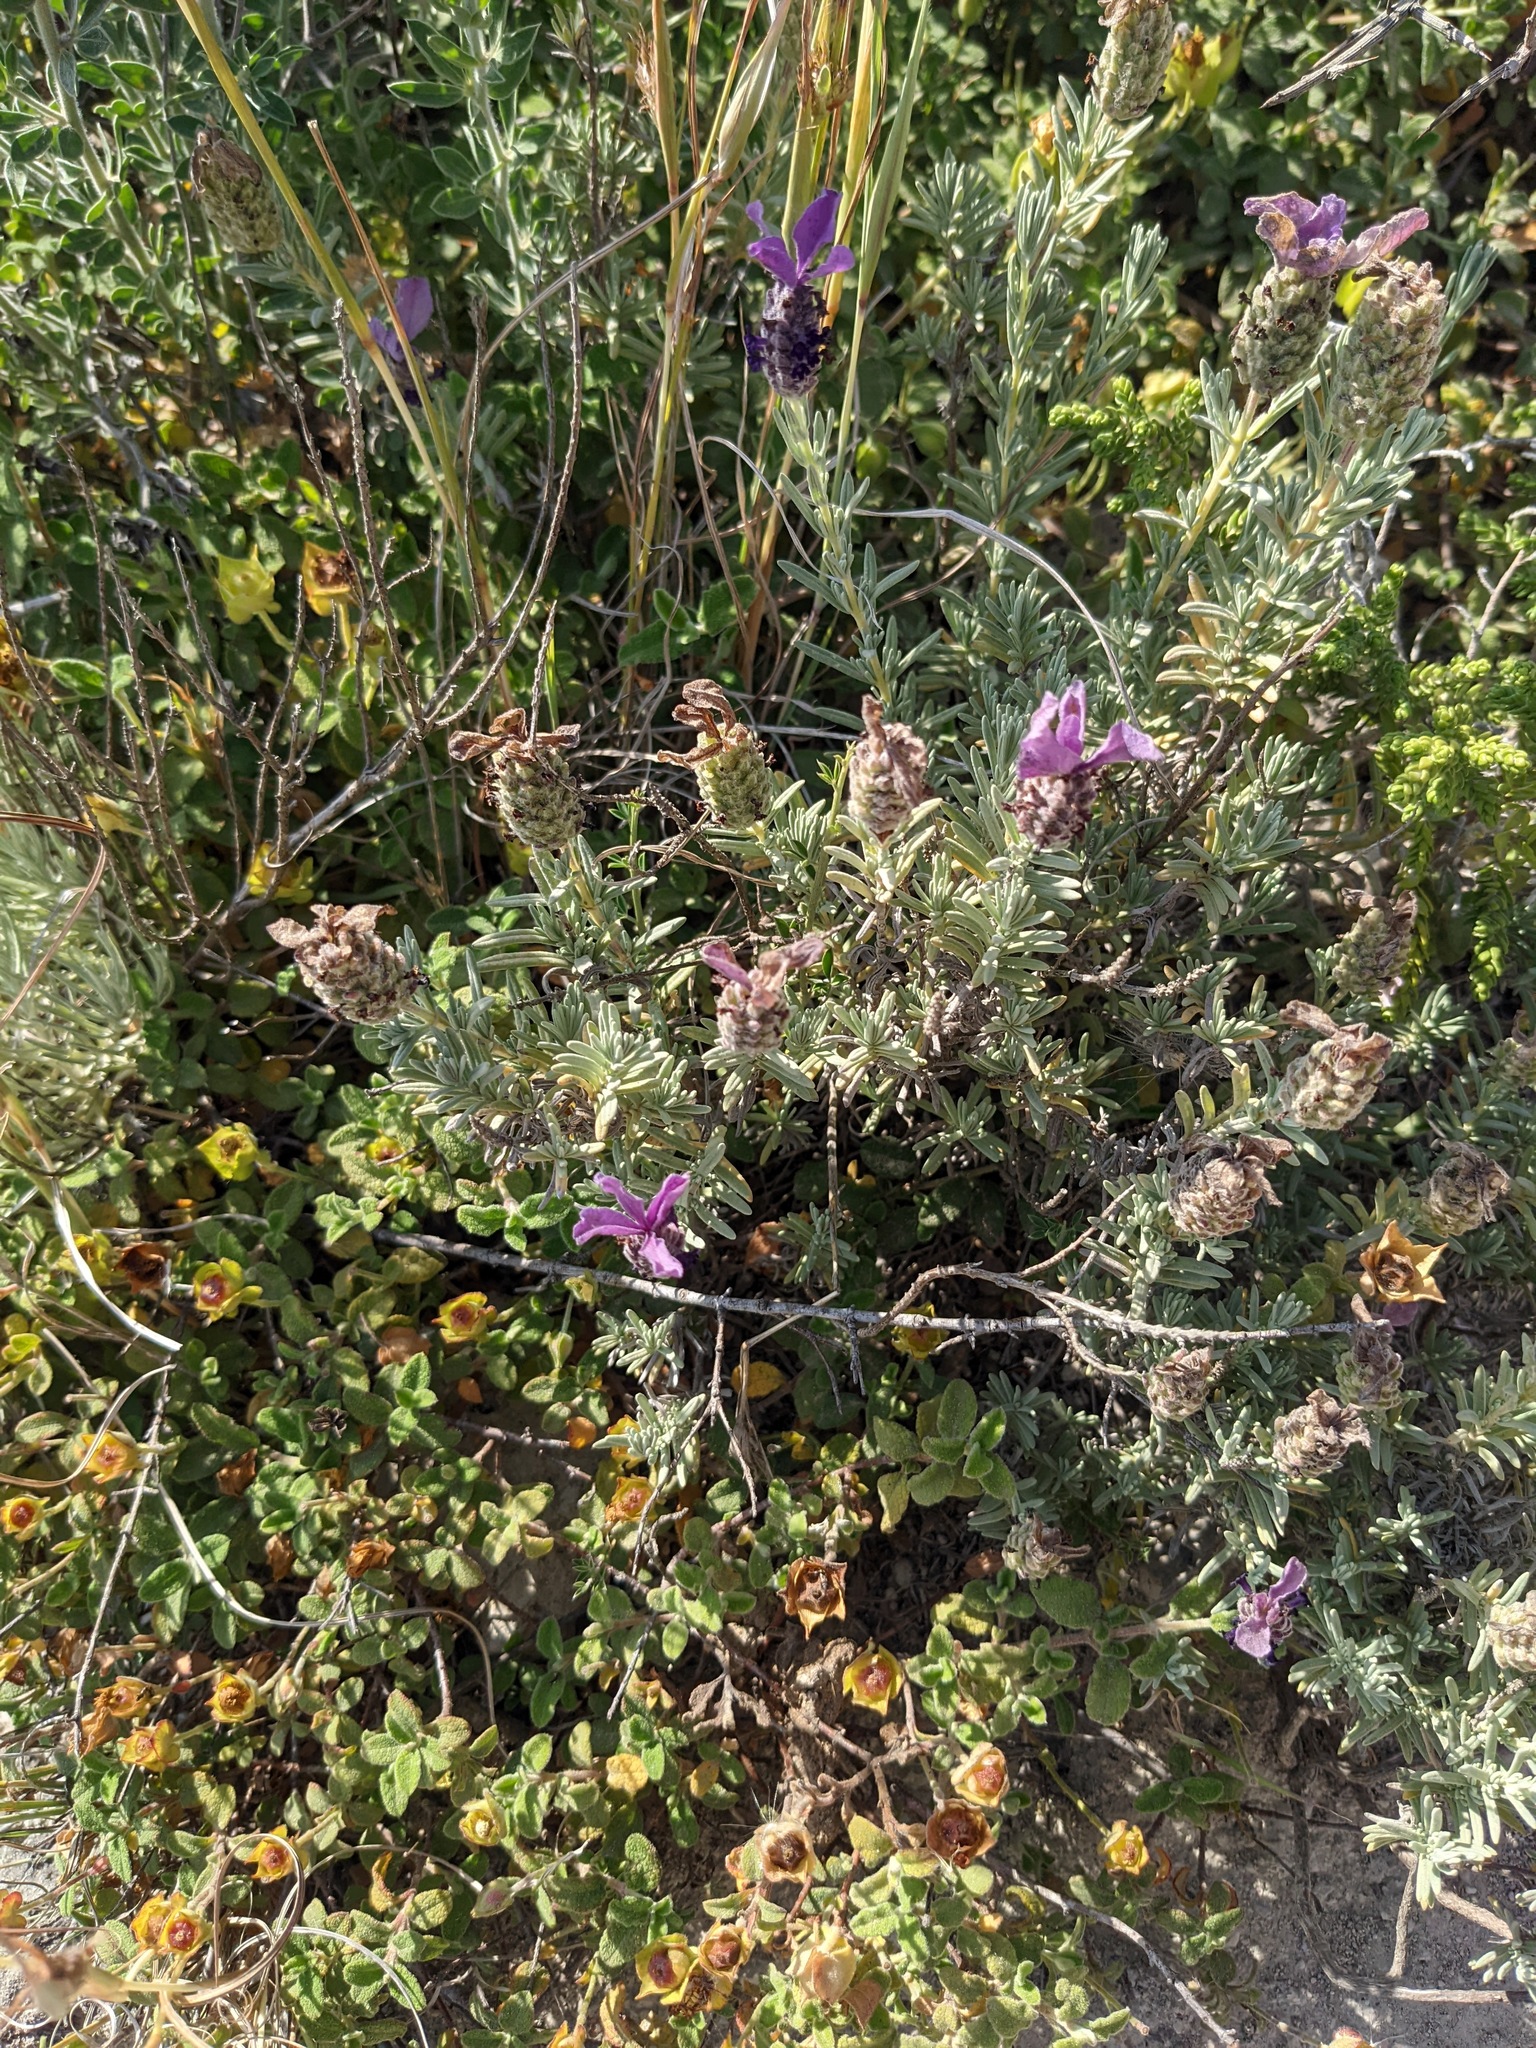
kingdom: Plantae
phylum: Tracheophyta
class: Magnoliopsida
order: Lamiales
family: Lamiaceae
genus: Lavandula
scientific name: Lavandula stoechas
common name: French lavender
